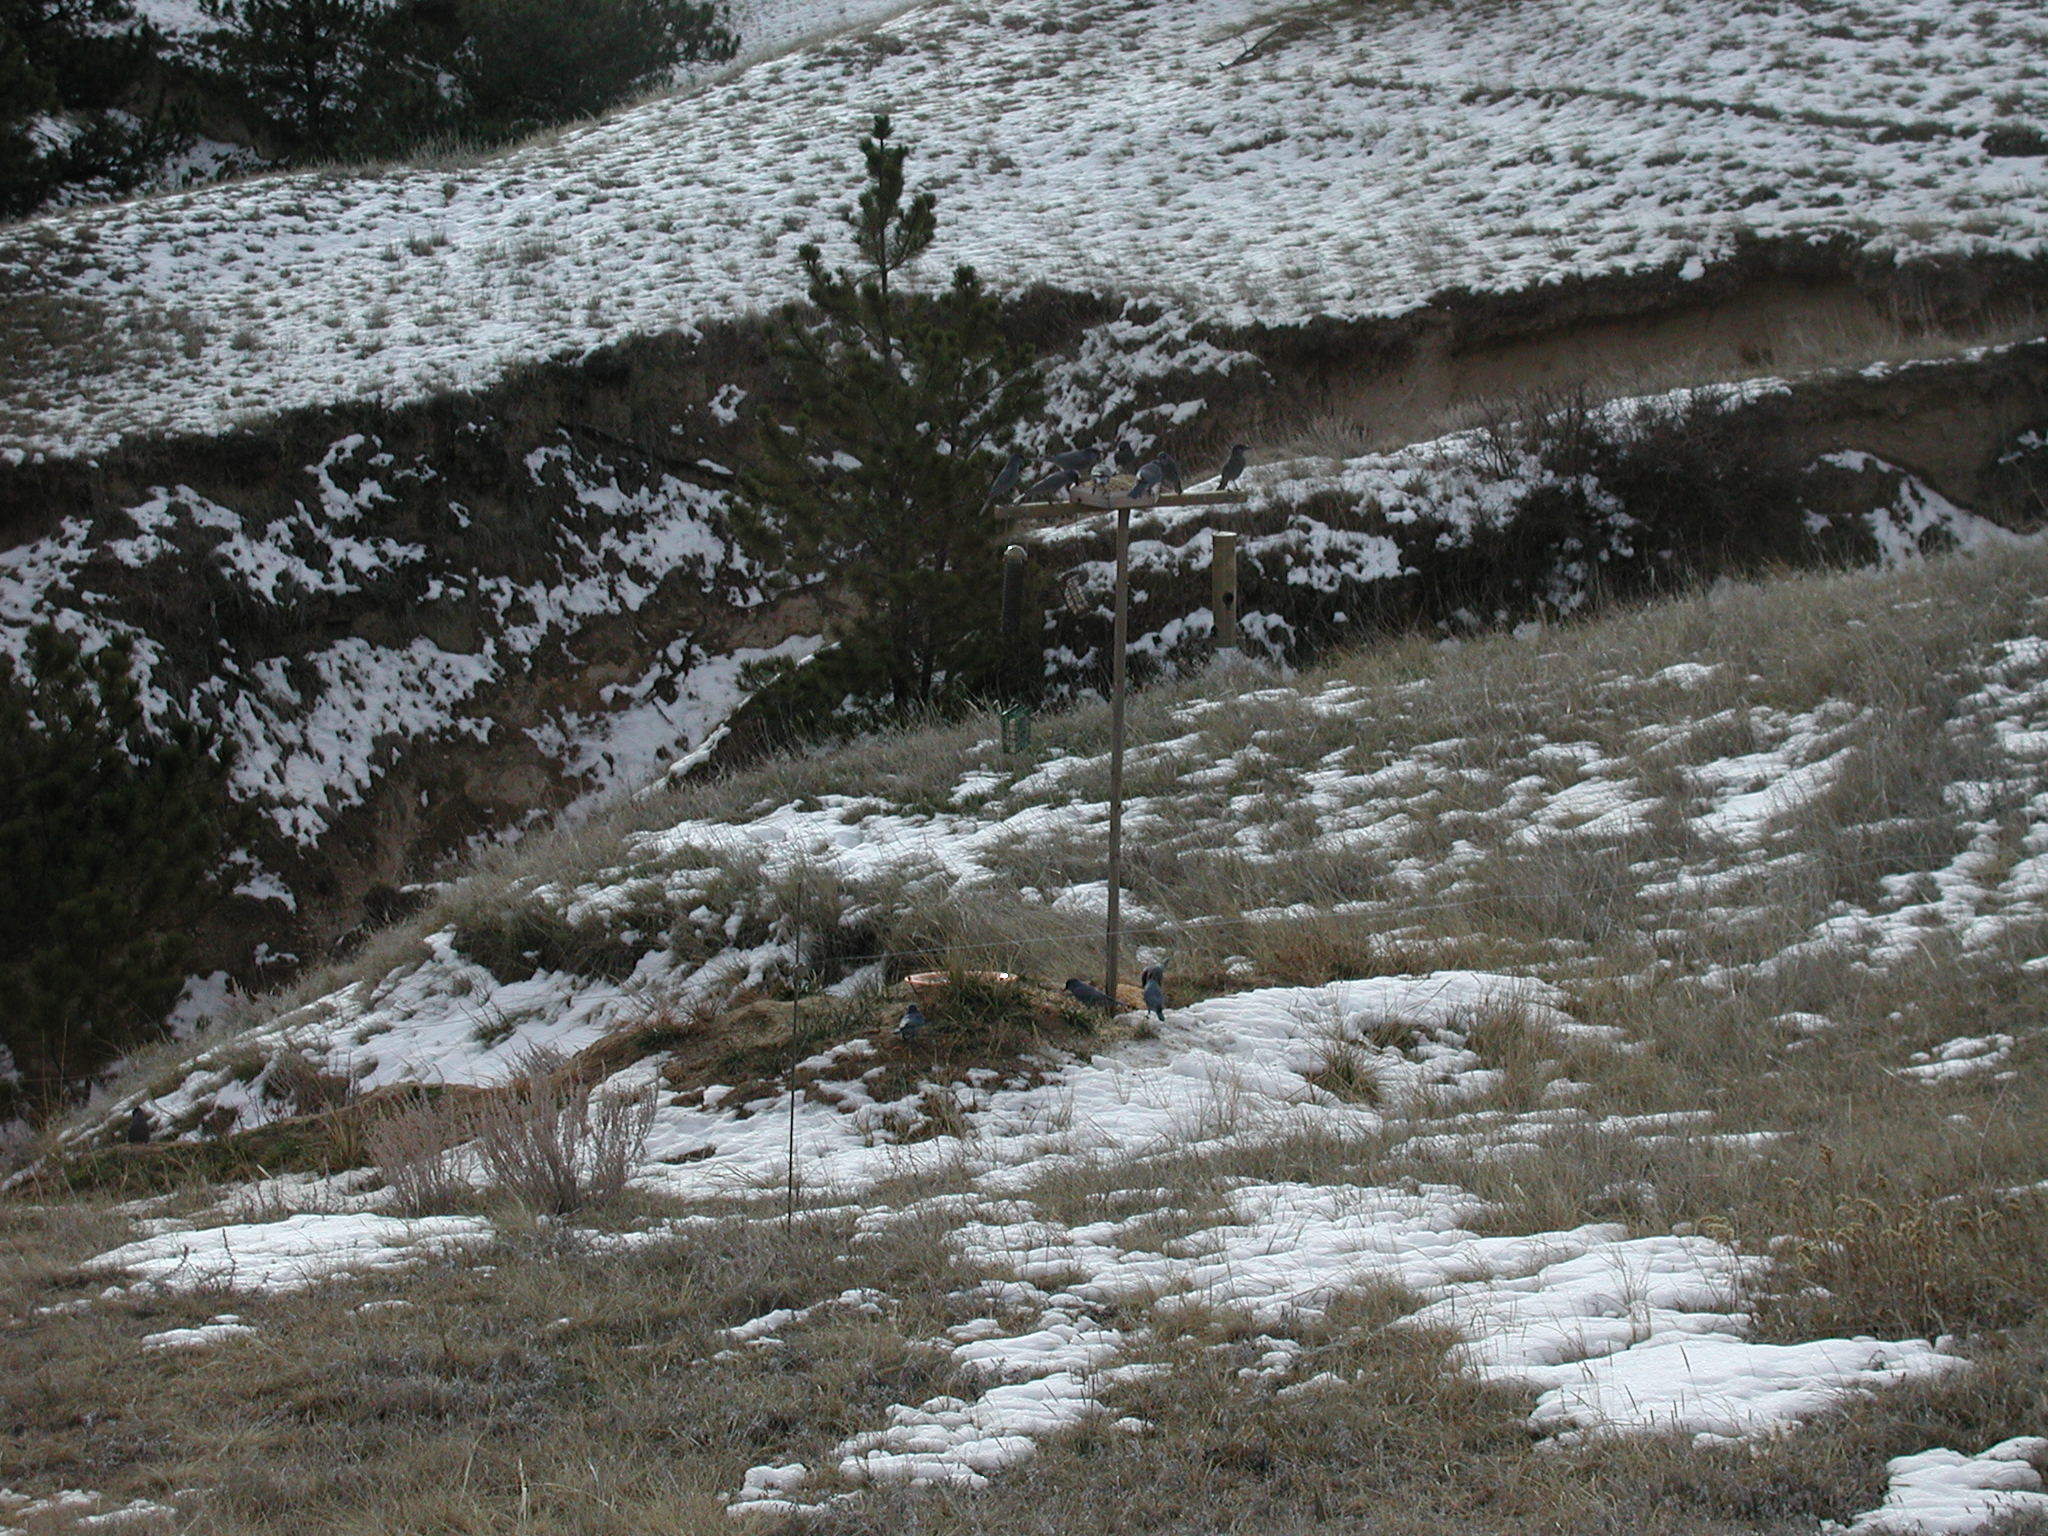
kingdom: Animalia
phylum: Chordata
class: Aves
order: Passeriformes
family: Corvidae
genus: Gymnorhinus
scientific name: Gymnorhinus cyanocephalus
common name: Pinyon jay
